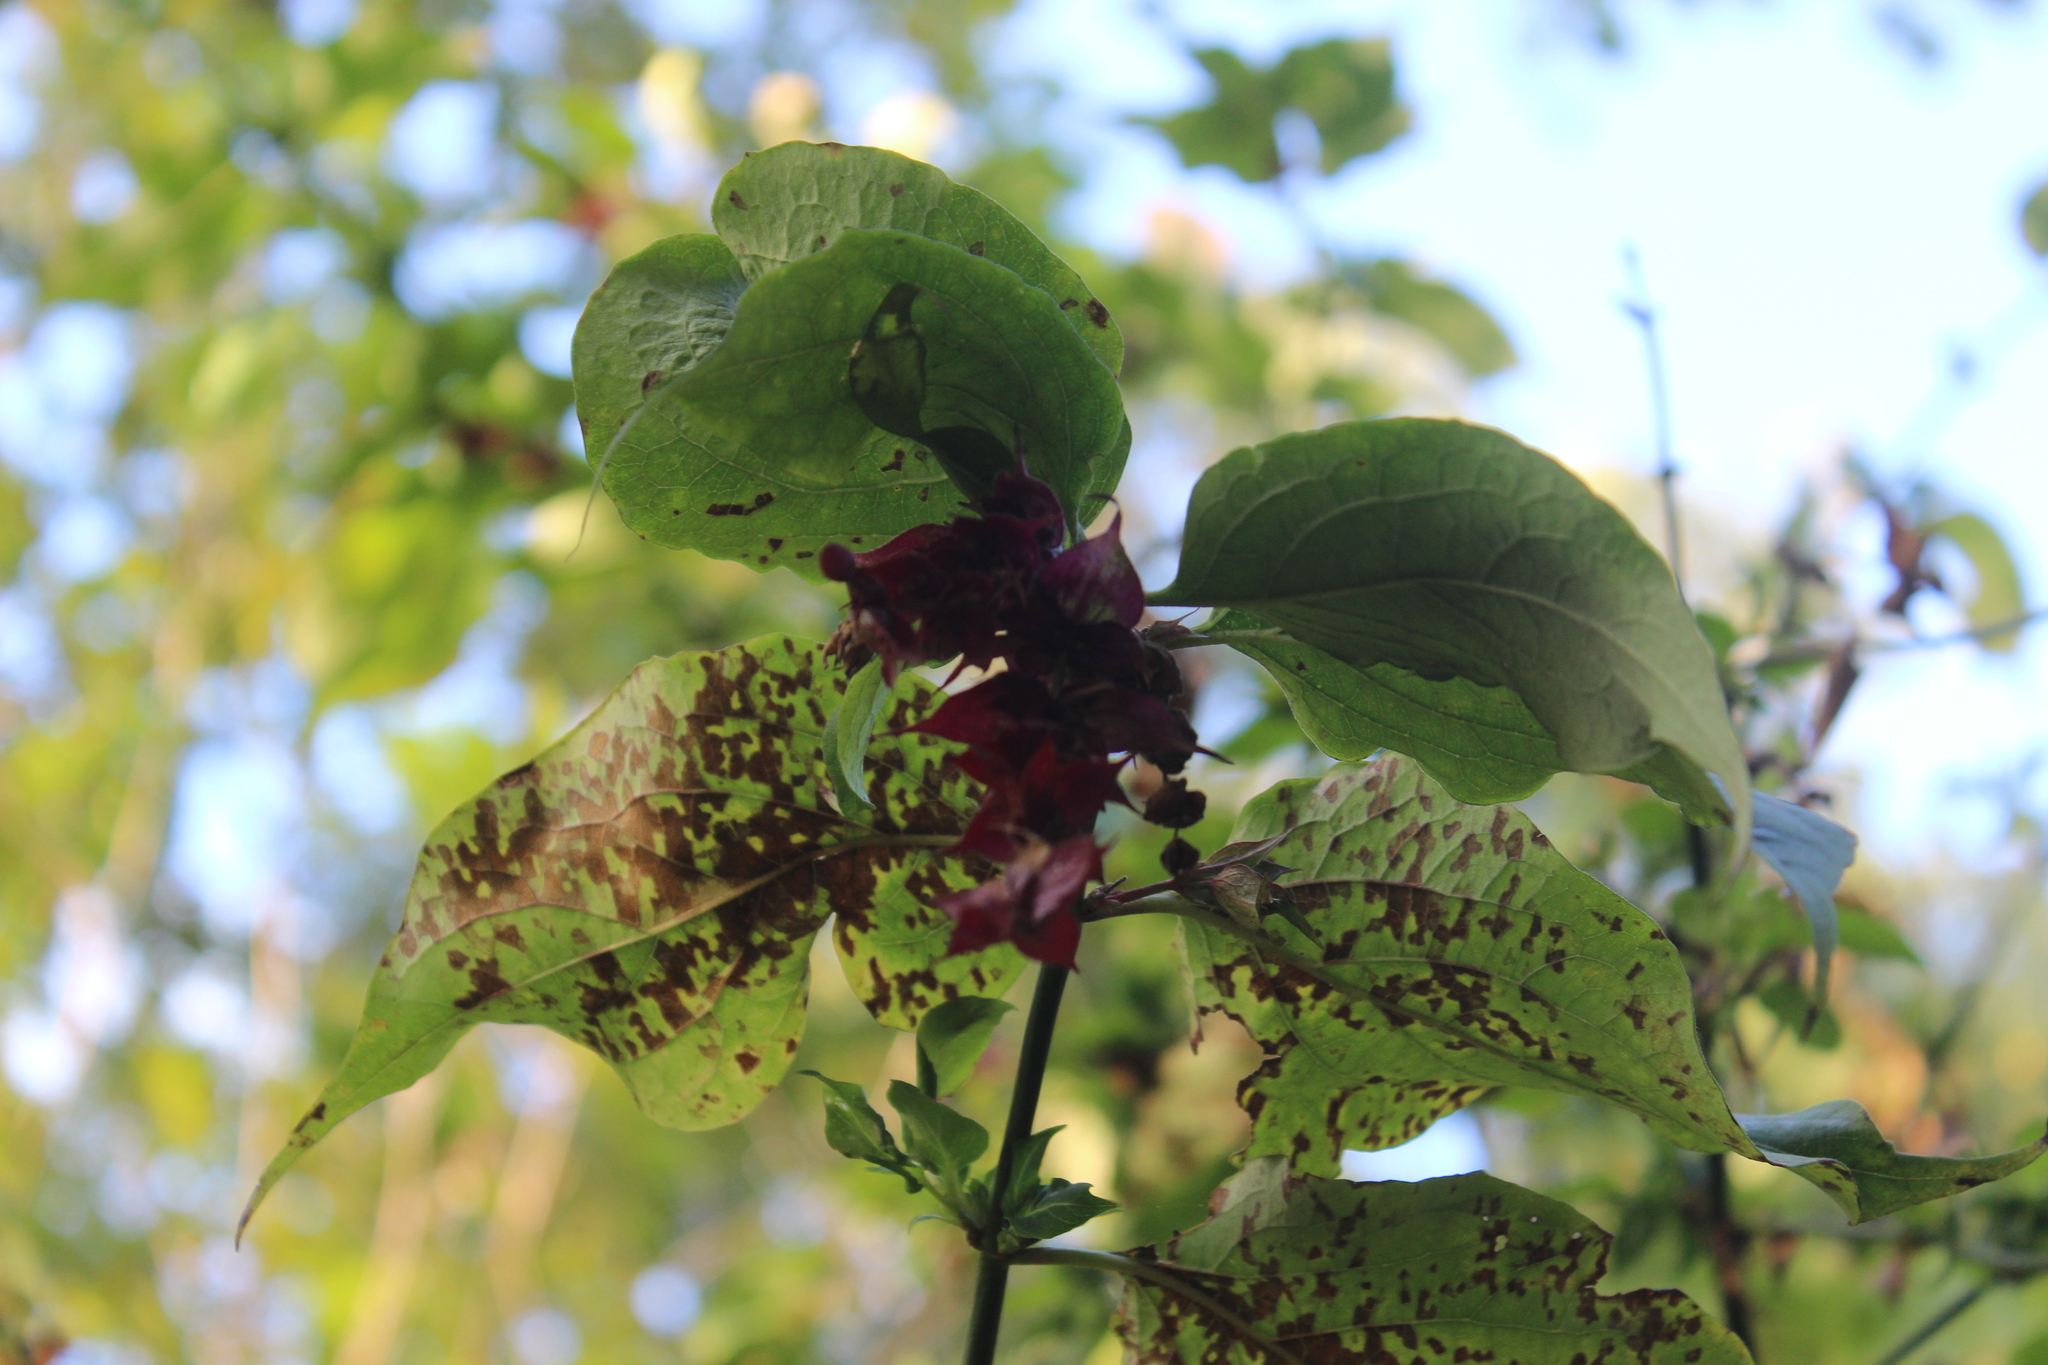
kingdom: Plantae
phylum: Tracheophyta
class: Magnoliopsida
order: Dipsacales
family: Caprifoliaceae
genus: Leycesteria
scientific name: Leycesteria formosa
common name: Himalayan honeysuckle
